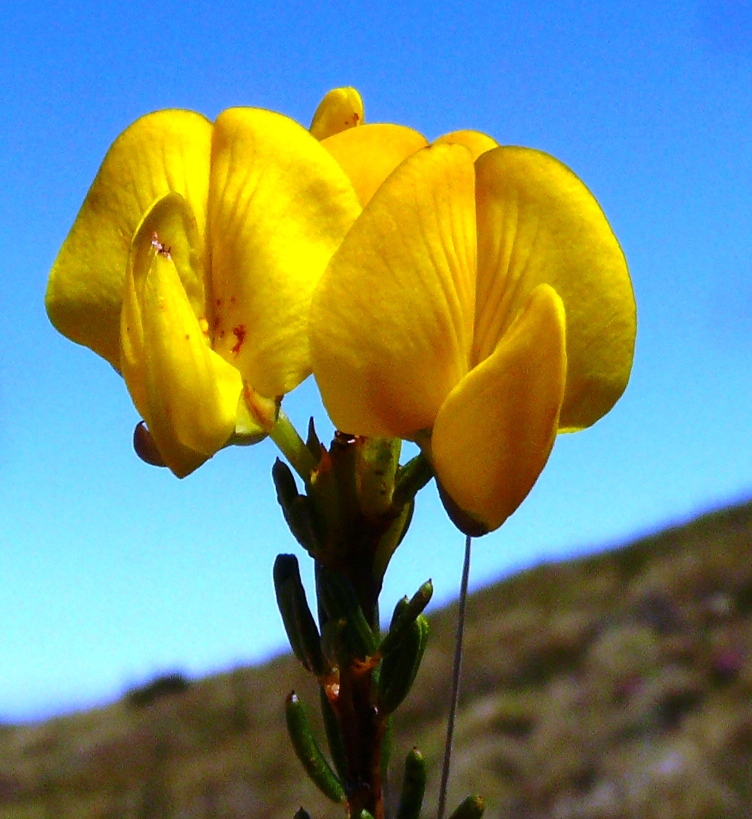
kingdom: Plantae
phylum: Tracheophyta
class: Magnoliopsida
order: Fabales
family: Fabaceae
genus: Cyclopia
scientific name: Cyclopia alpina
